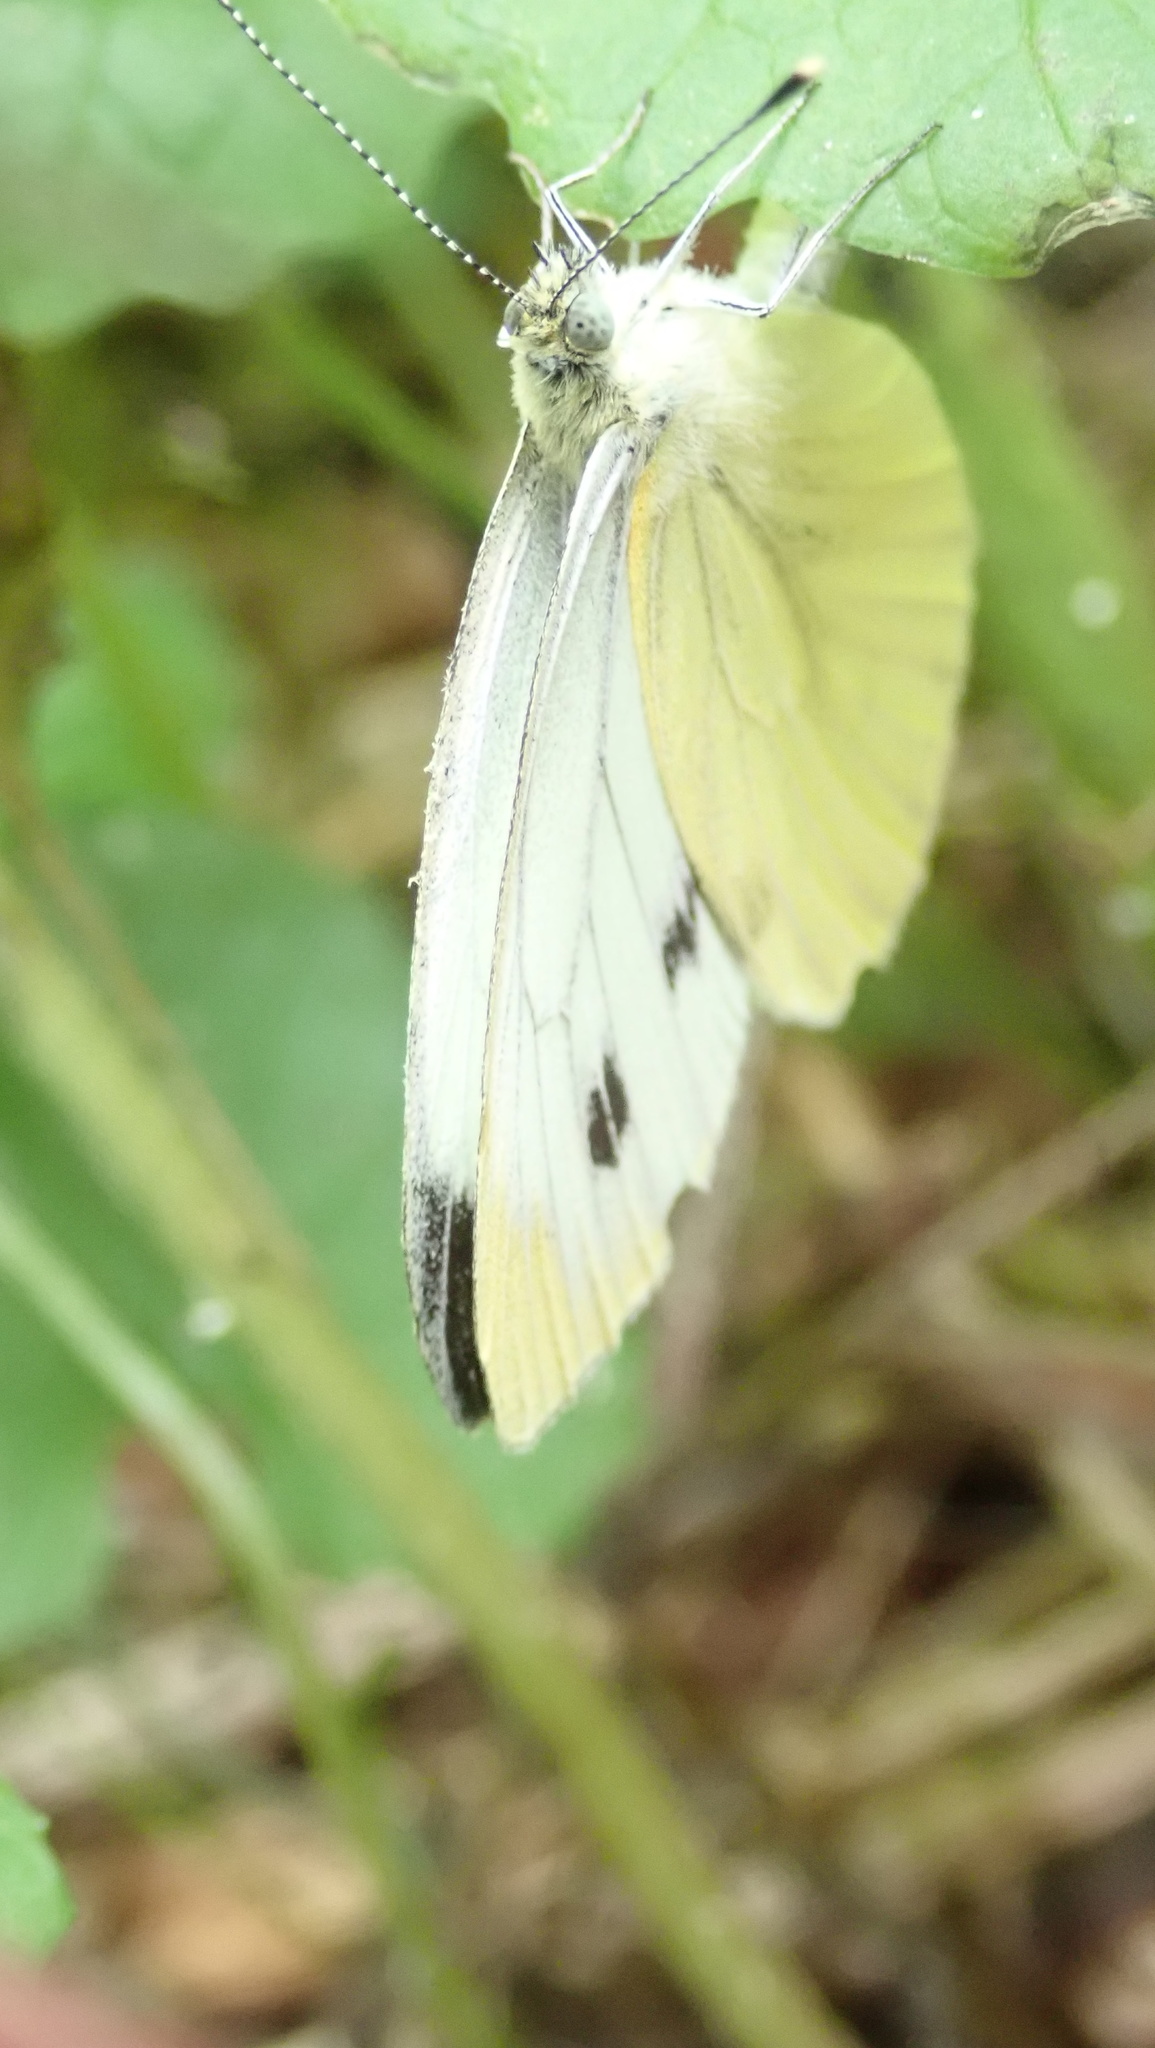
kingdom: Animalia
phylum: Arthropoda
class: Insecta
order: Lepidoptera
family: Pieridae
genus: Pieris
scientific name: Pieris napi
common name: Green-veined white
